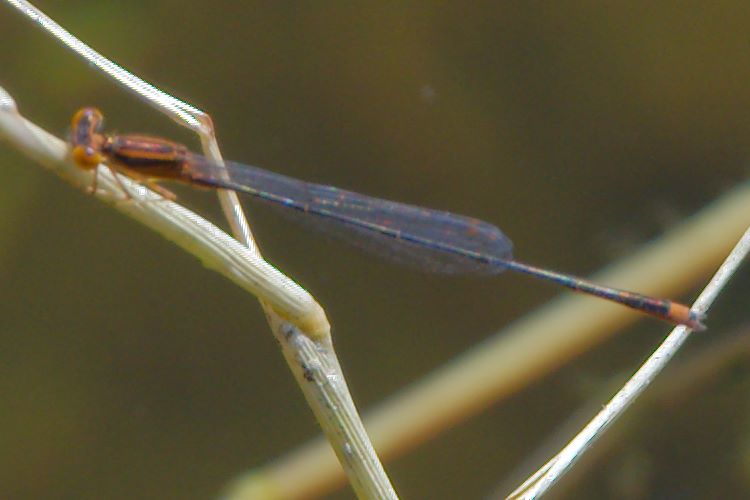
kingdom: Animalia
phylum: Arthropoda
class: Insecta
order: Odonata
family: Coenagrionidae
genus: Enallagma
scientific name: Enallagma pollutum
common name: Florida bluet
